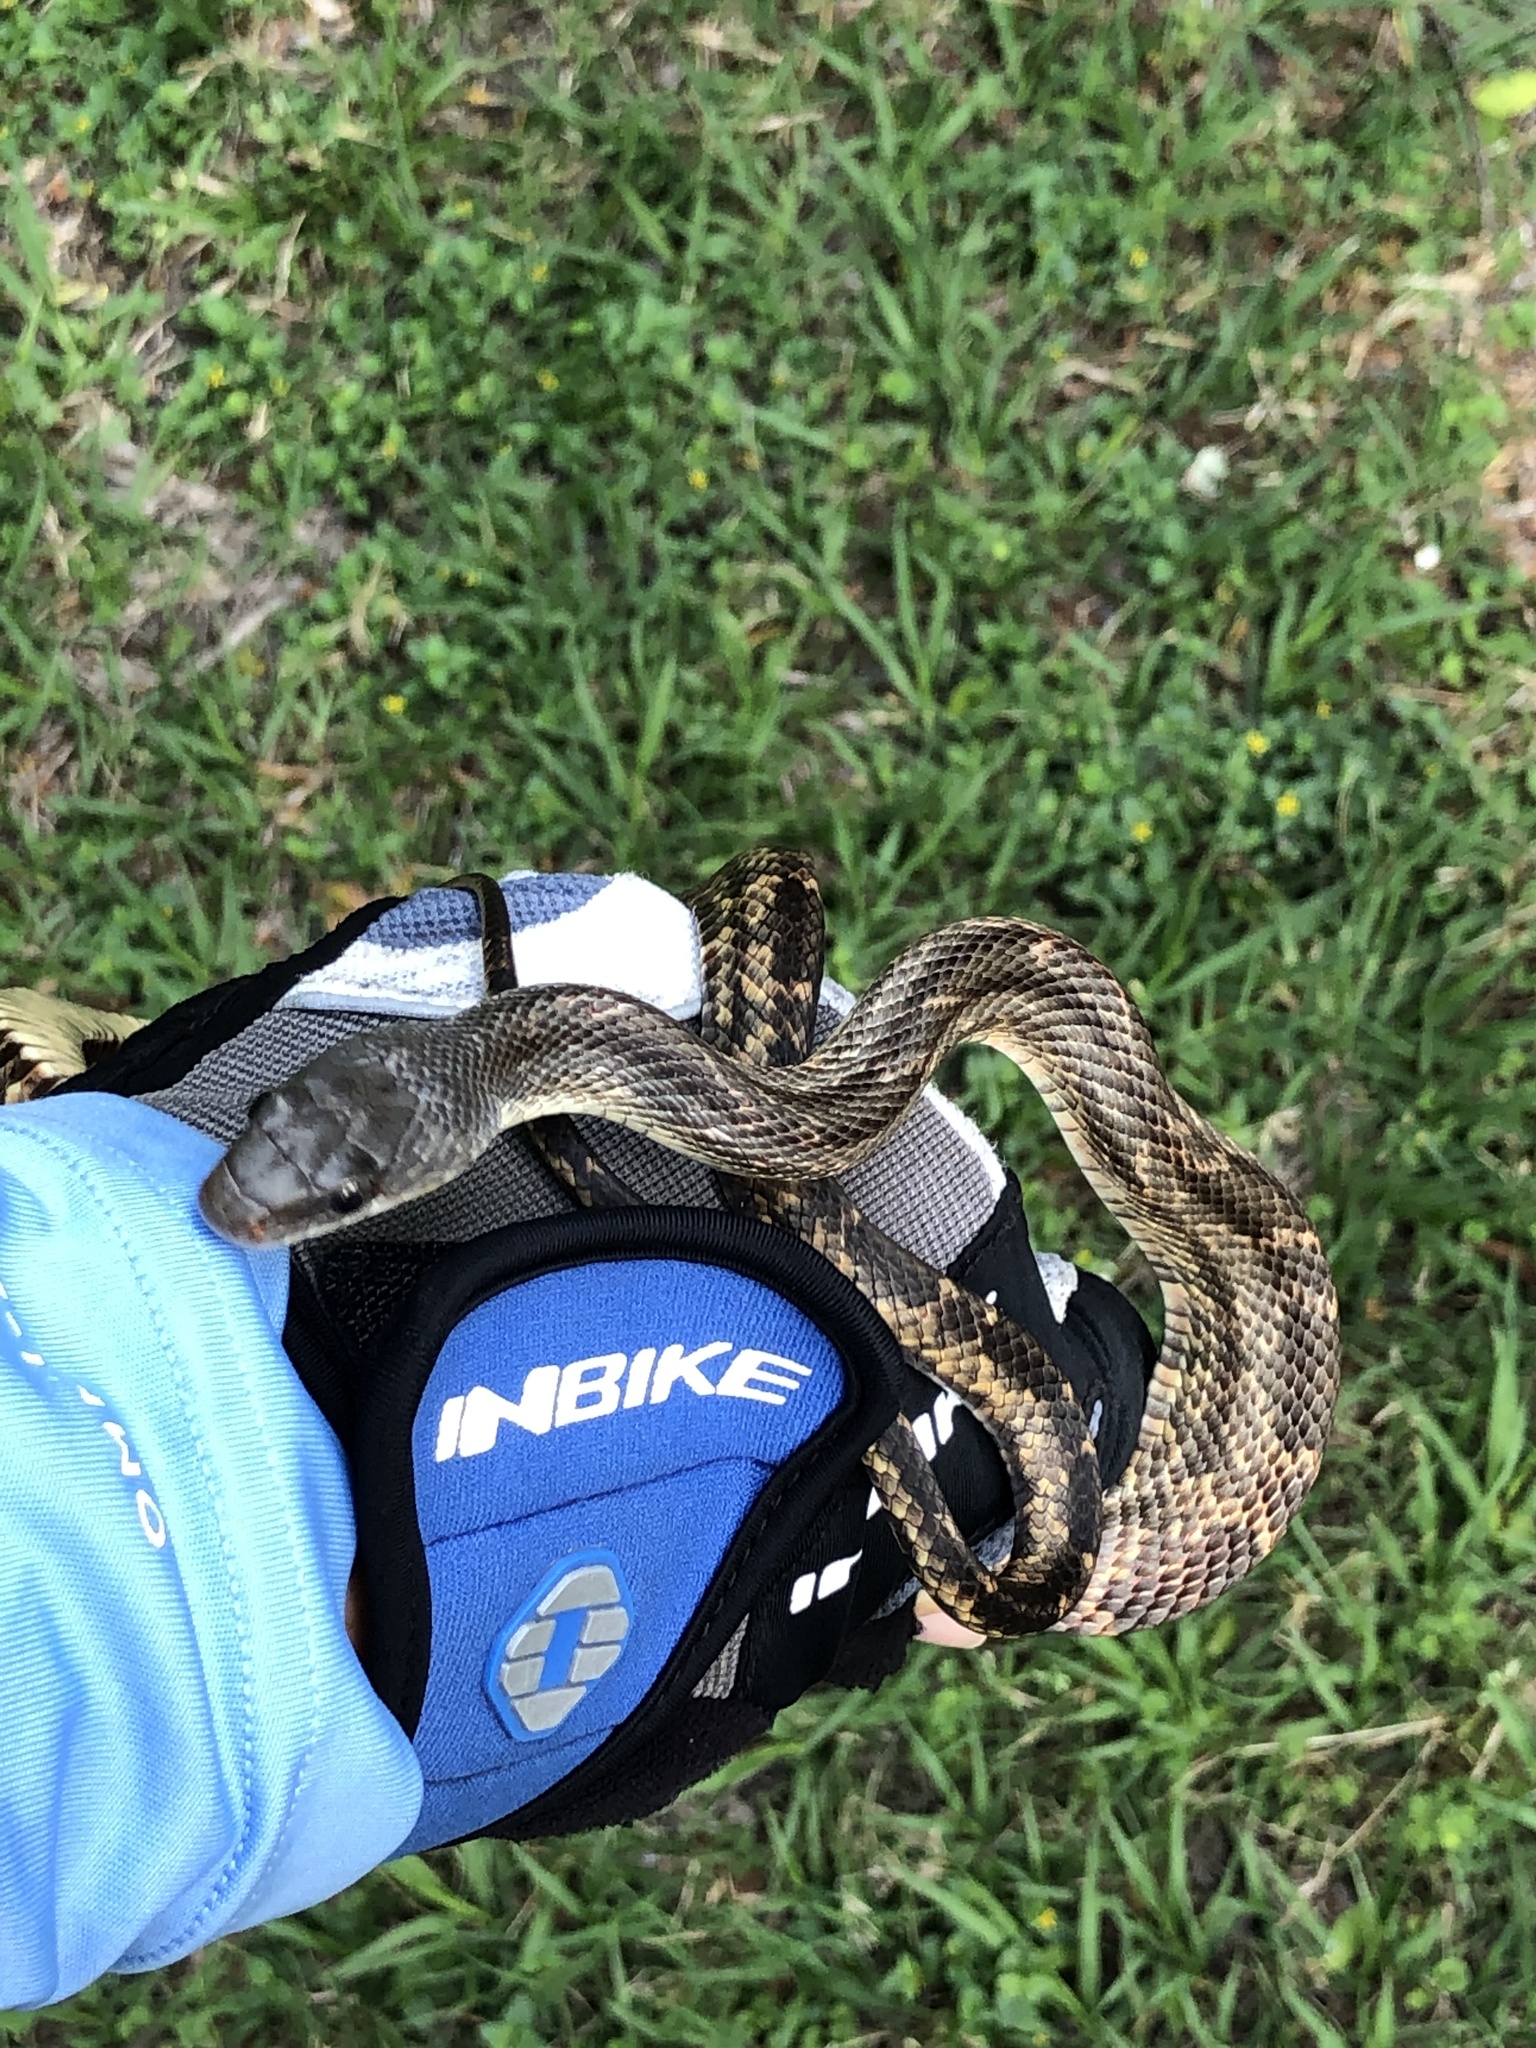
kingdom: Animalia
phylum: Chordata
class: Squamata
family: Colubridae
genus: Pantherophis
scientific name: Pantherophis obsoletus
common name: Black rat snake
